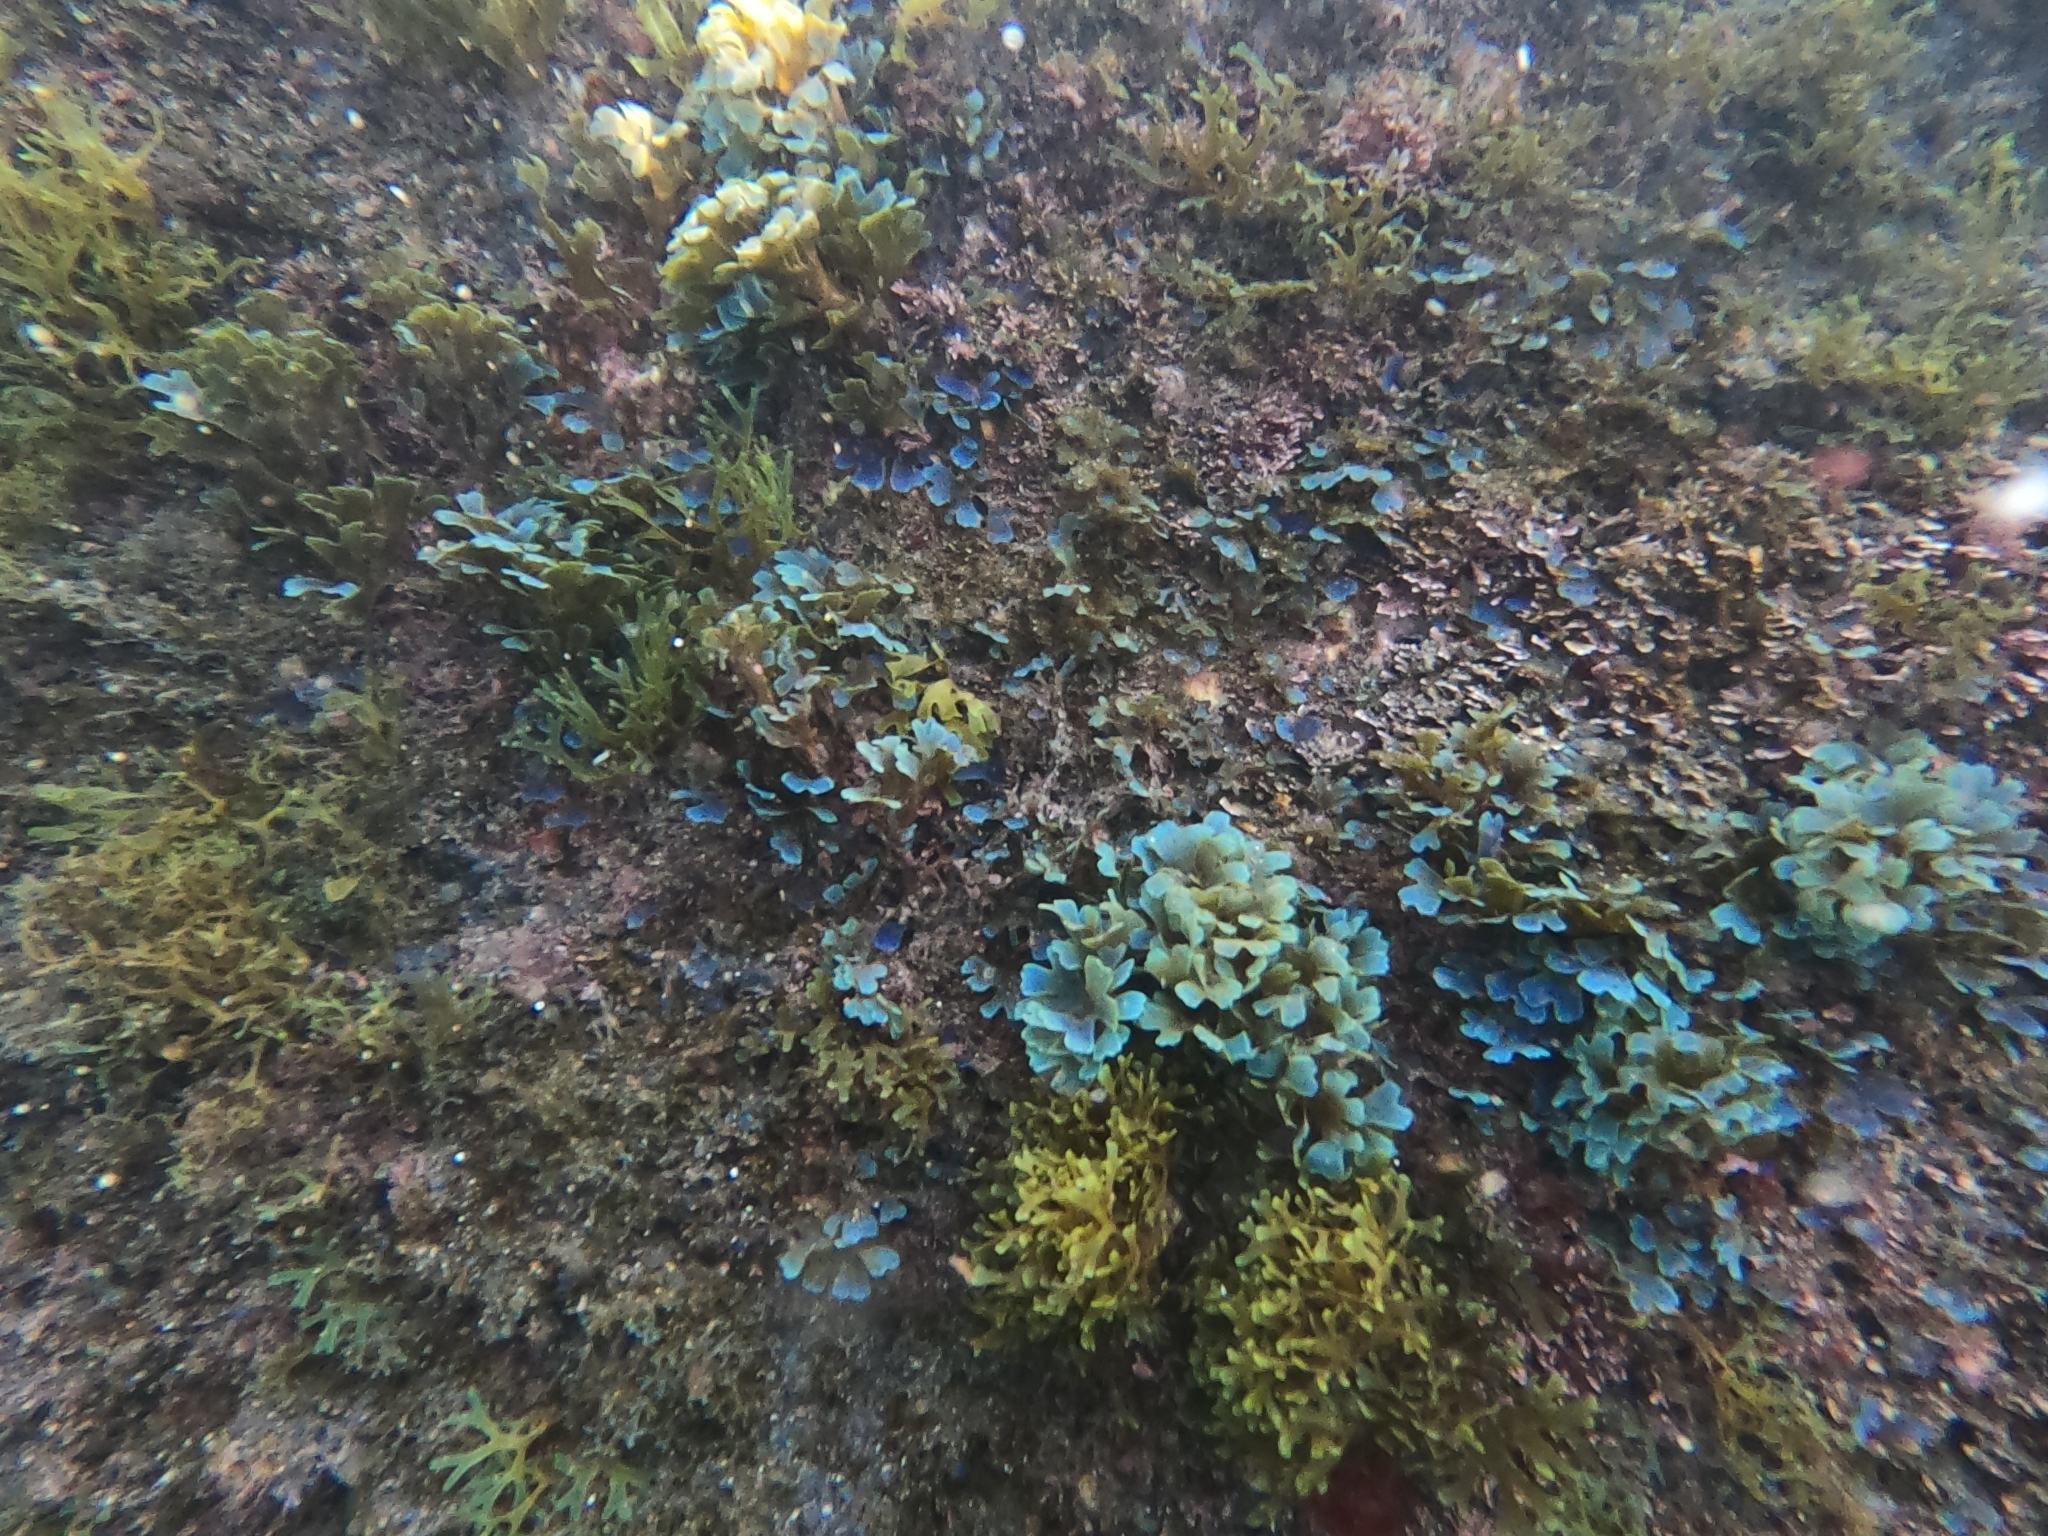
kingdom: Chromista
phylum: Ochrophyta
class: Phaeophyceae
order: Dictyotales
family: Dictyotaceae
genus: Dictyota
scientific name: Dictyota dichotoma
